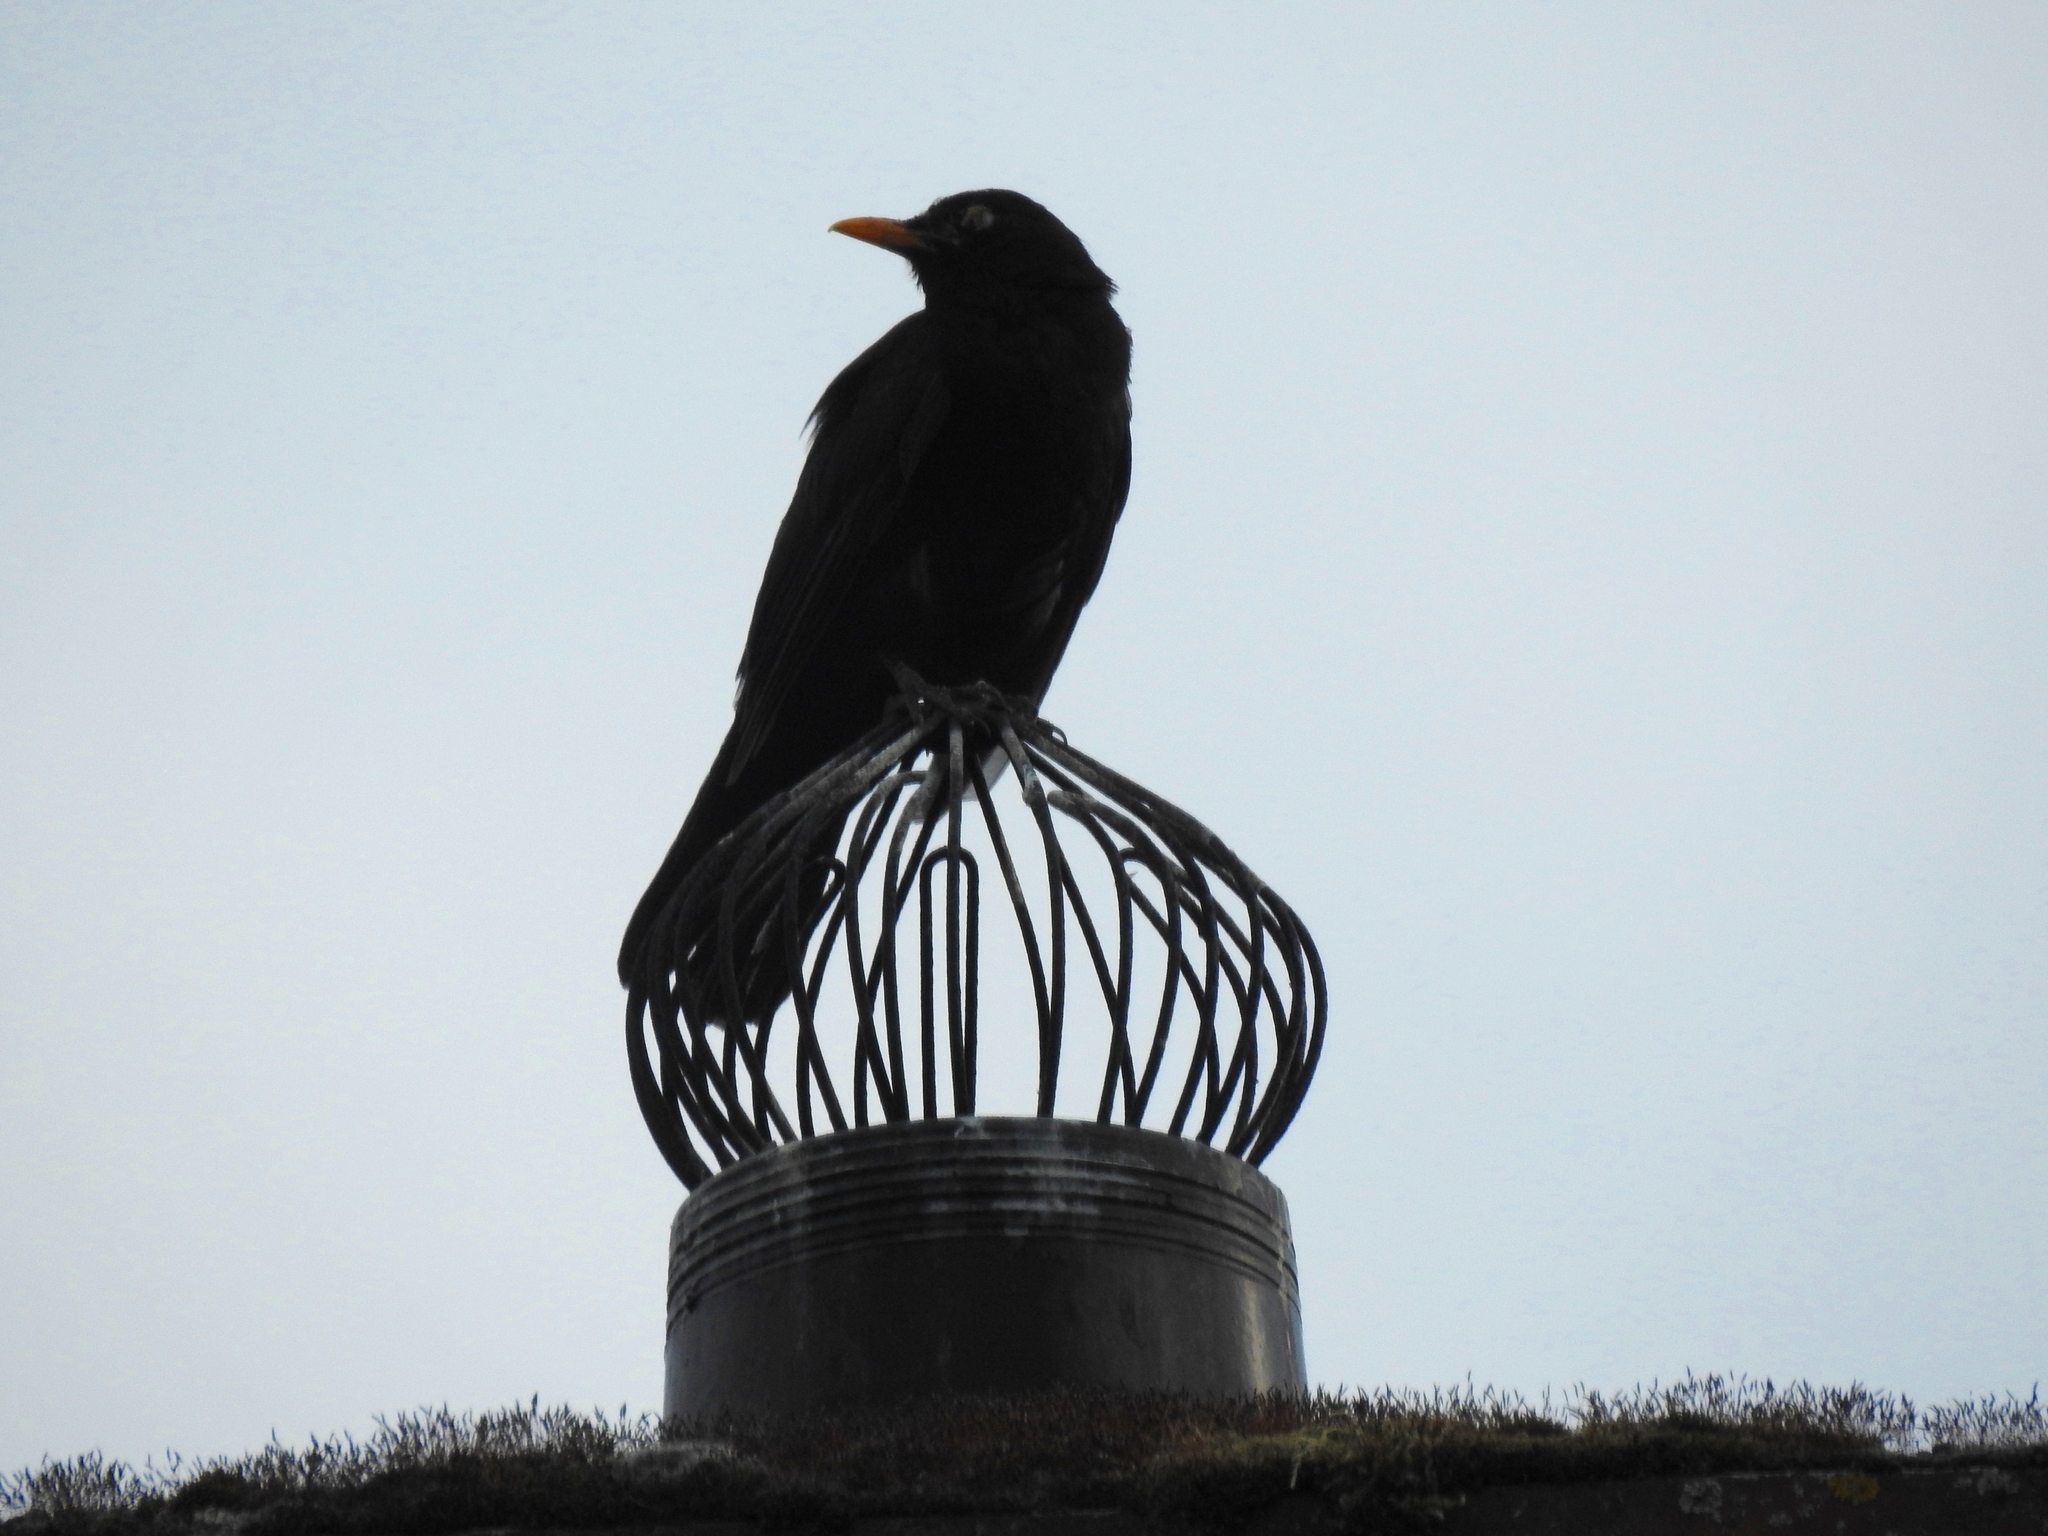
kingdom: Animalia
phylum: Chordata
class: Aves
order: Passeriformes
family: Turdidae
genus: Turdus
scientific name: Turdus merula
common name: Common blackbird
